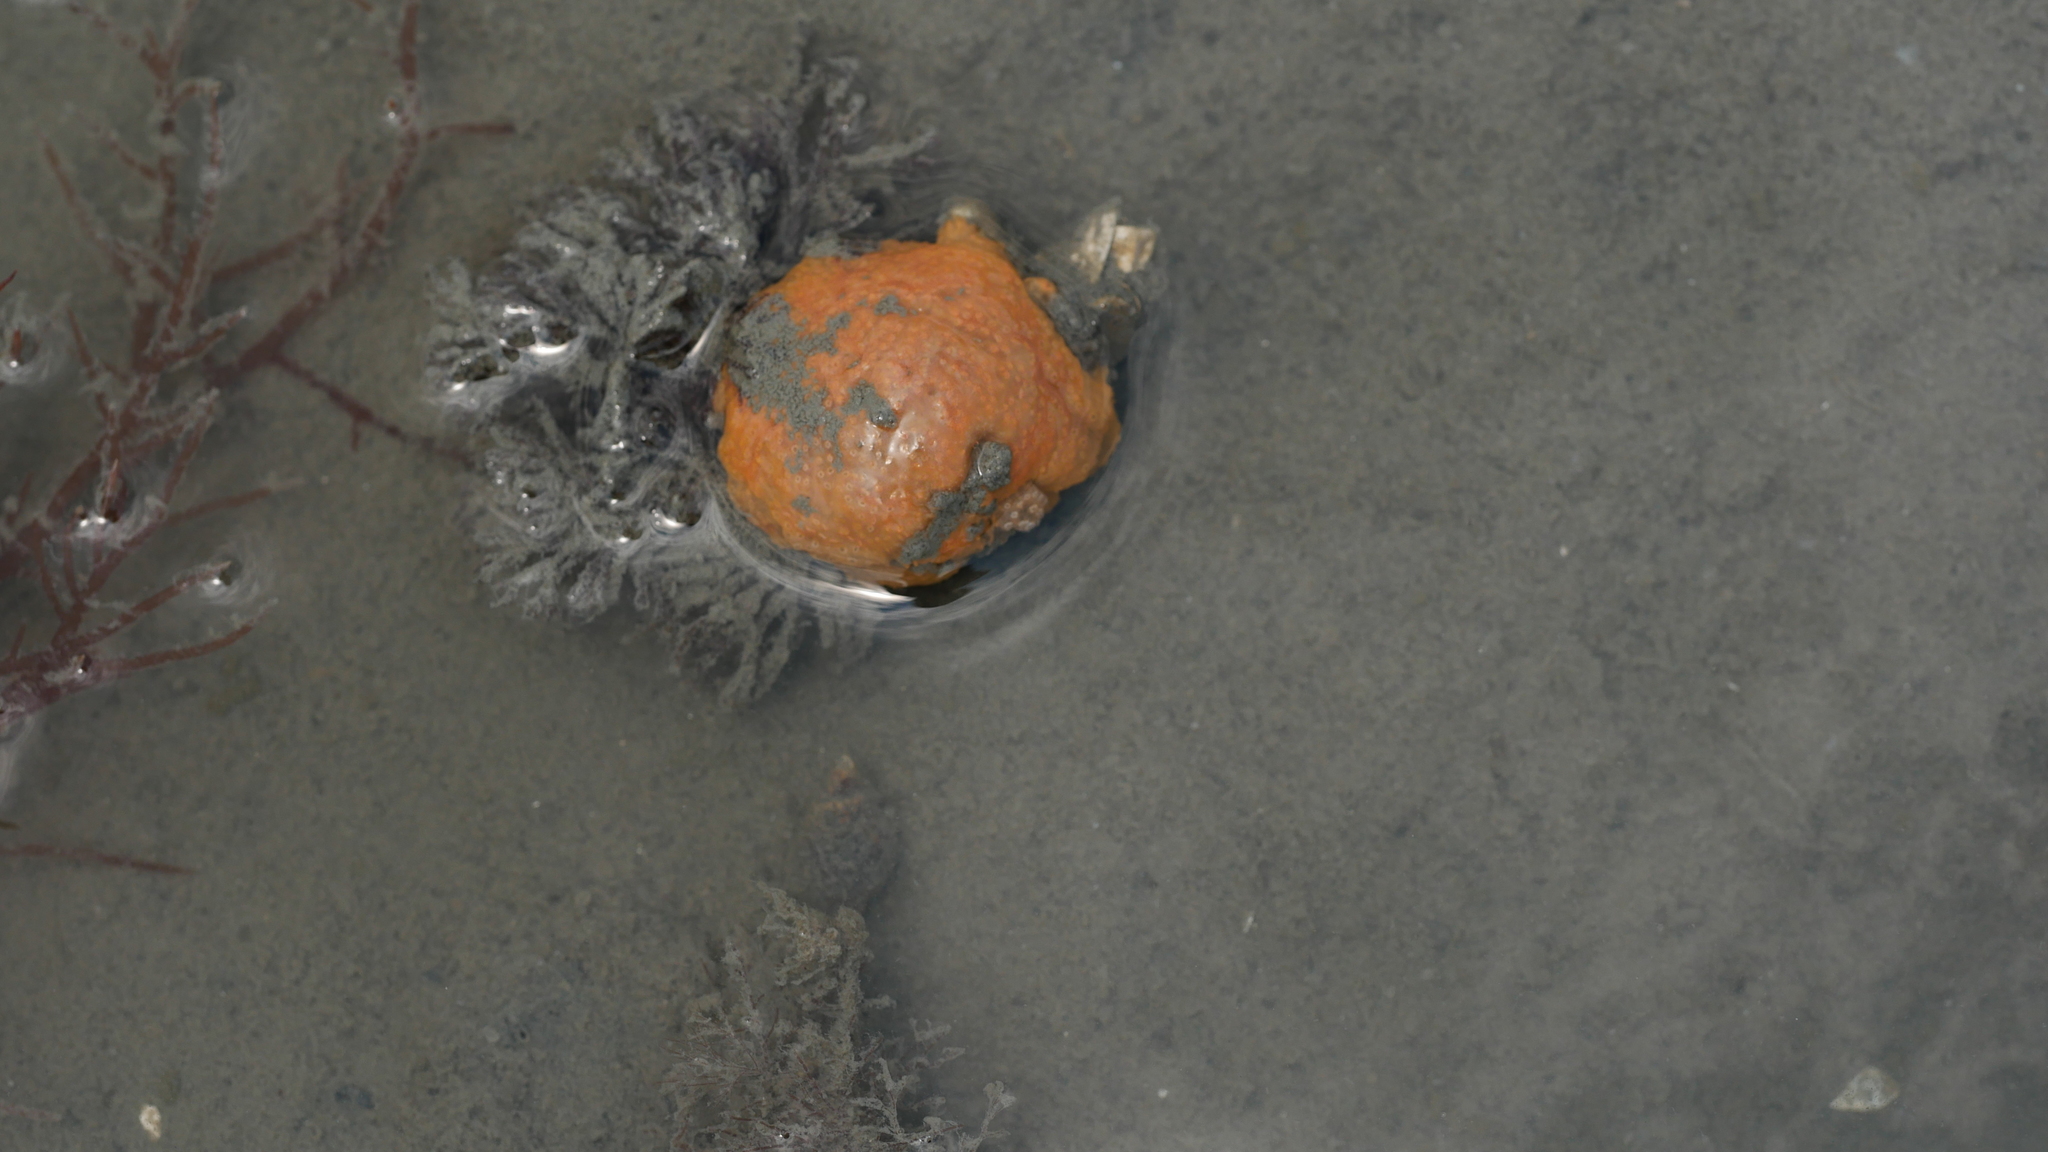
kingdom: Animalia
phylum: Chordata
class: Ascidiacea
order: Aplousobranchia
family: Polyclinidae
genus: Aplidium
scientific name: Aplidium stellatum
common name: Atlantic sea pork
